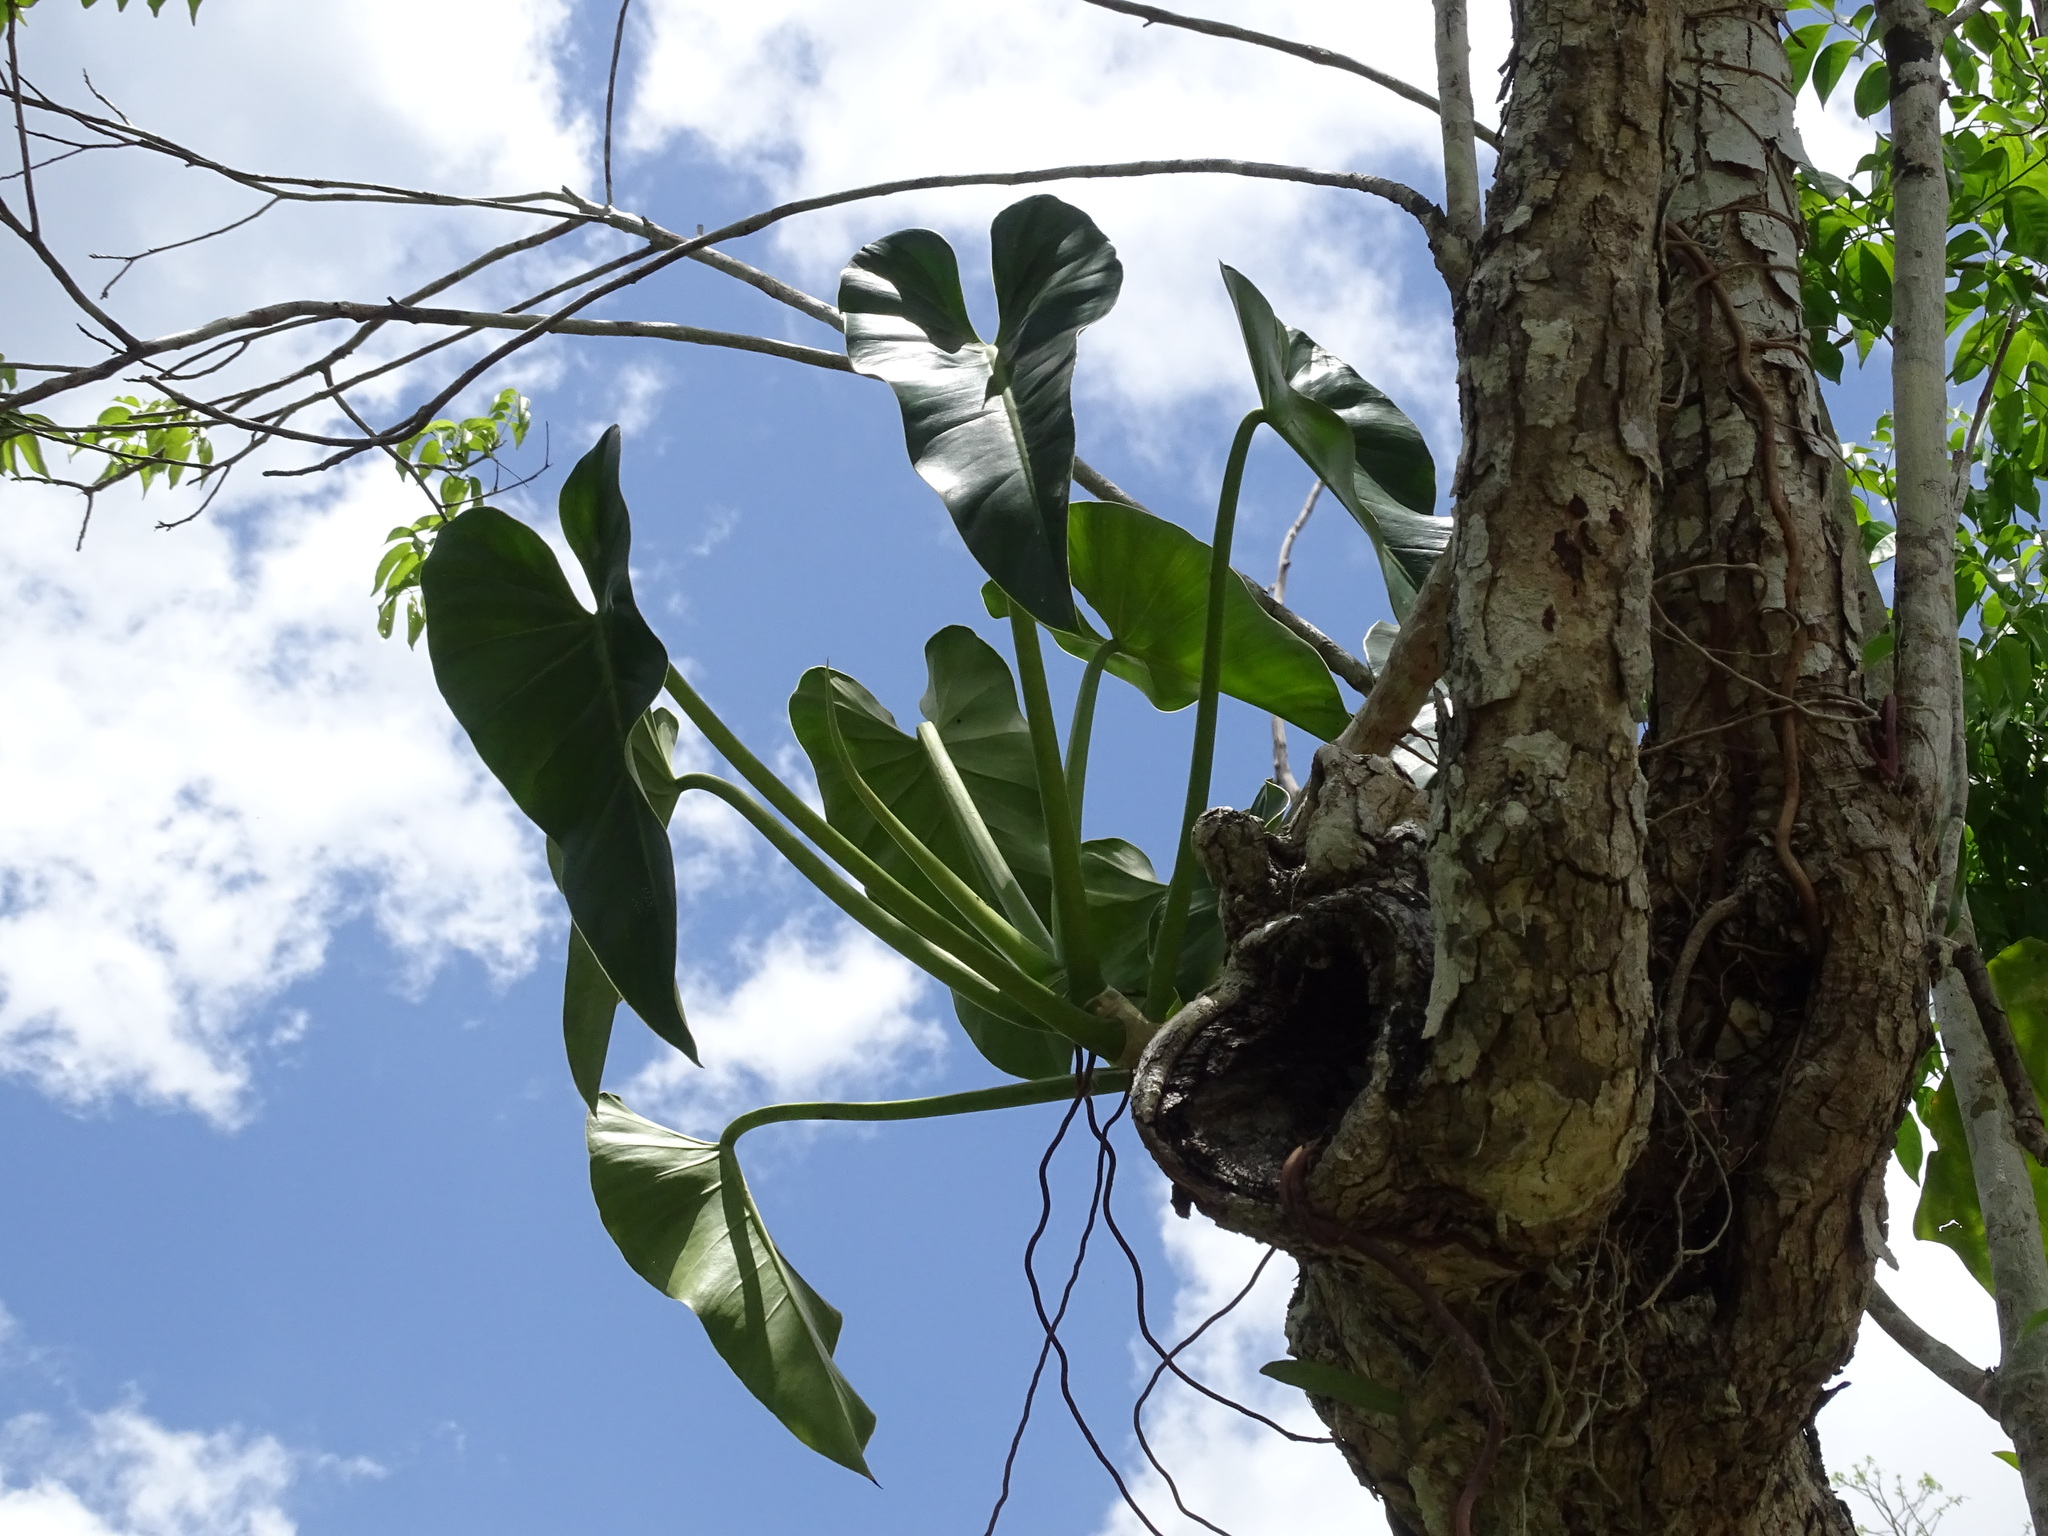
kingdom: Plantae
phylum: Tracheophyta
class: Liliopsida
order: Alismatales
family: Araceae
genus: Philodendron
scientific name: Philodendron smithii
